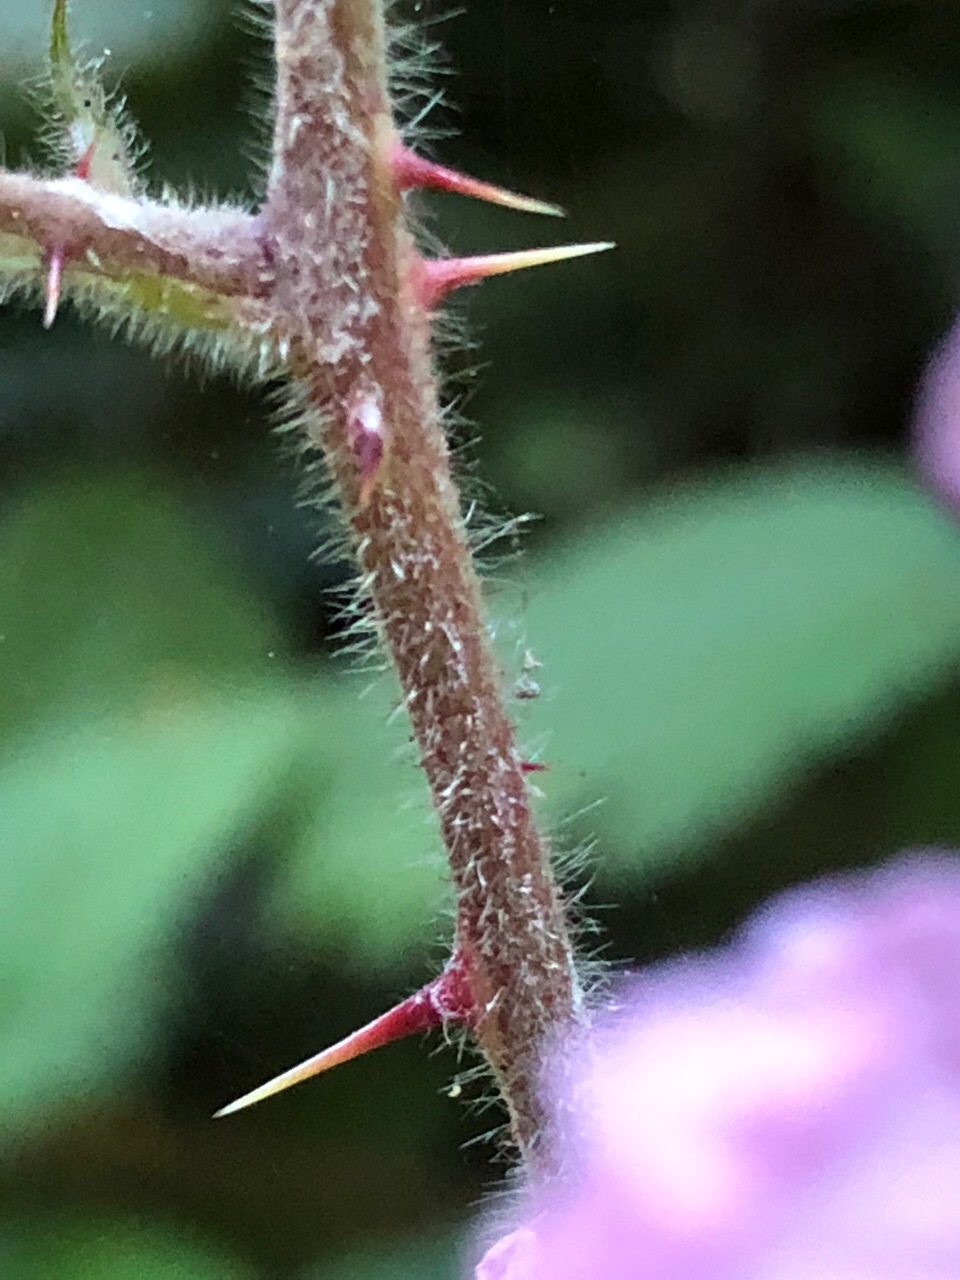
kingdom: Plantae
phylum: Tracheophyta
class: Magnoliopsida
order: Rosales
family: Rosaceae
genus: Rubus
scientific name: Rubus vestitus
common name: European blackberry
